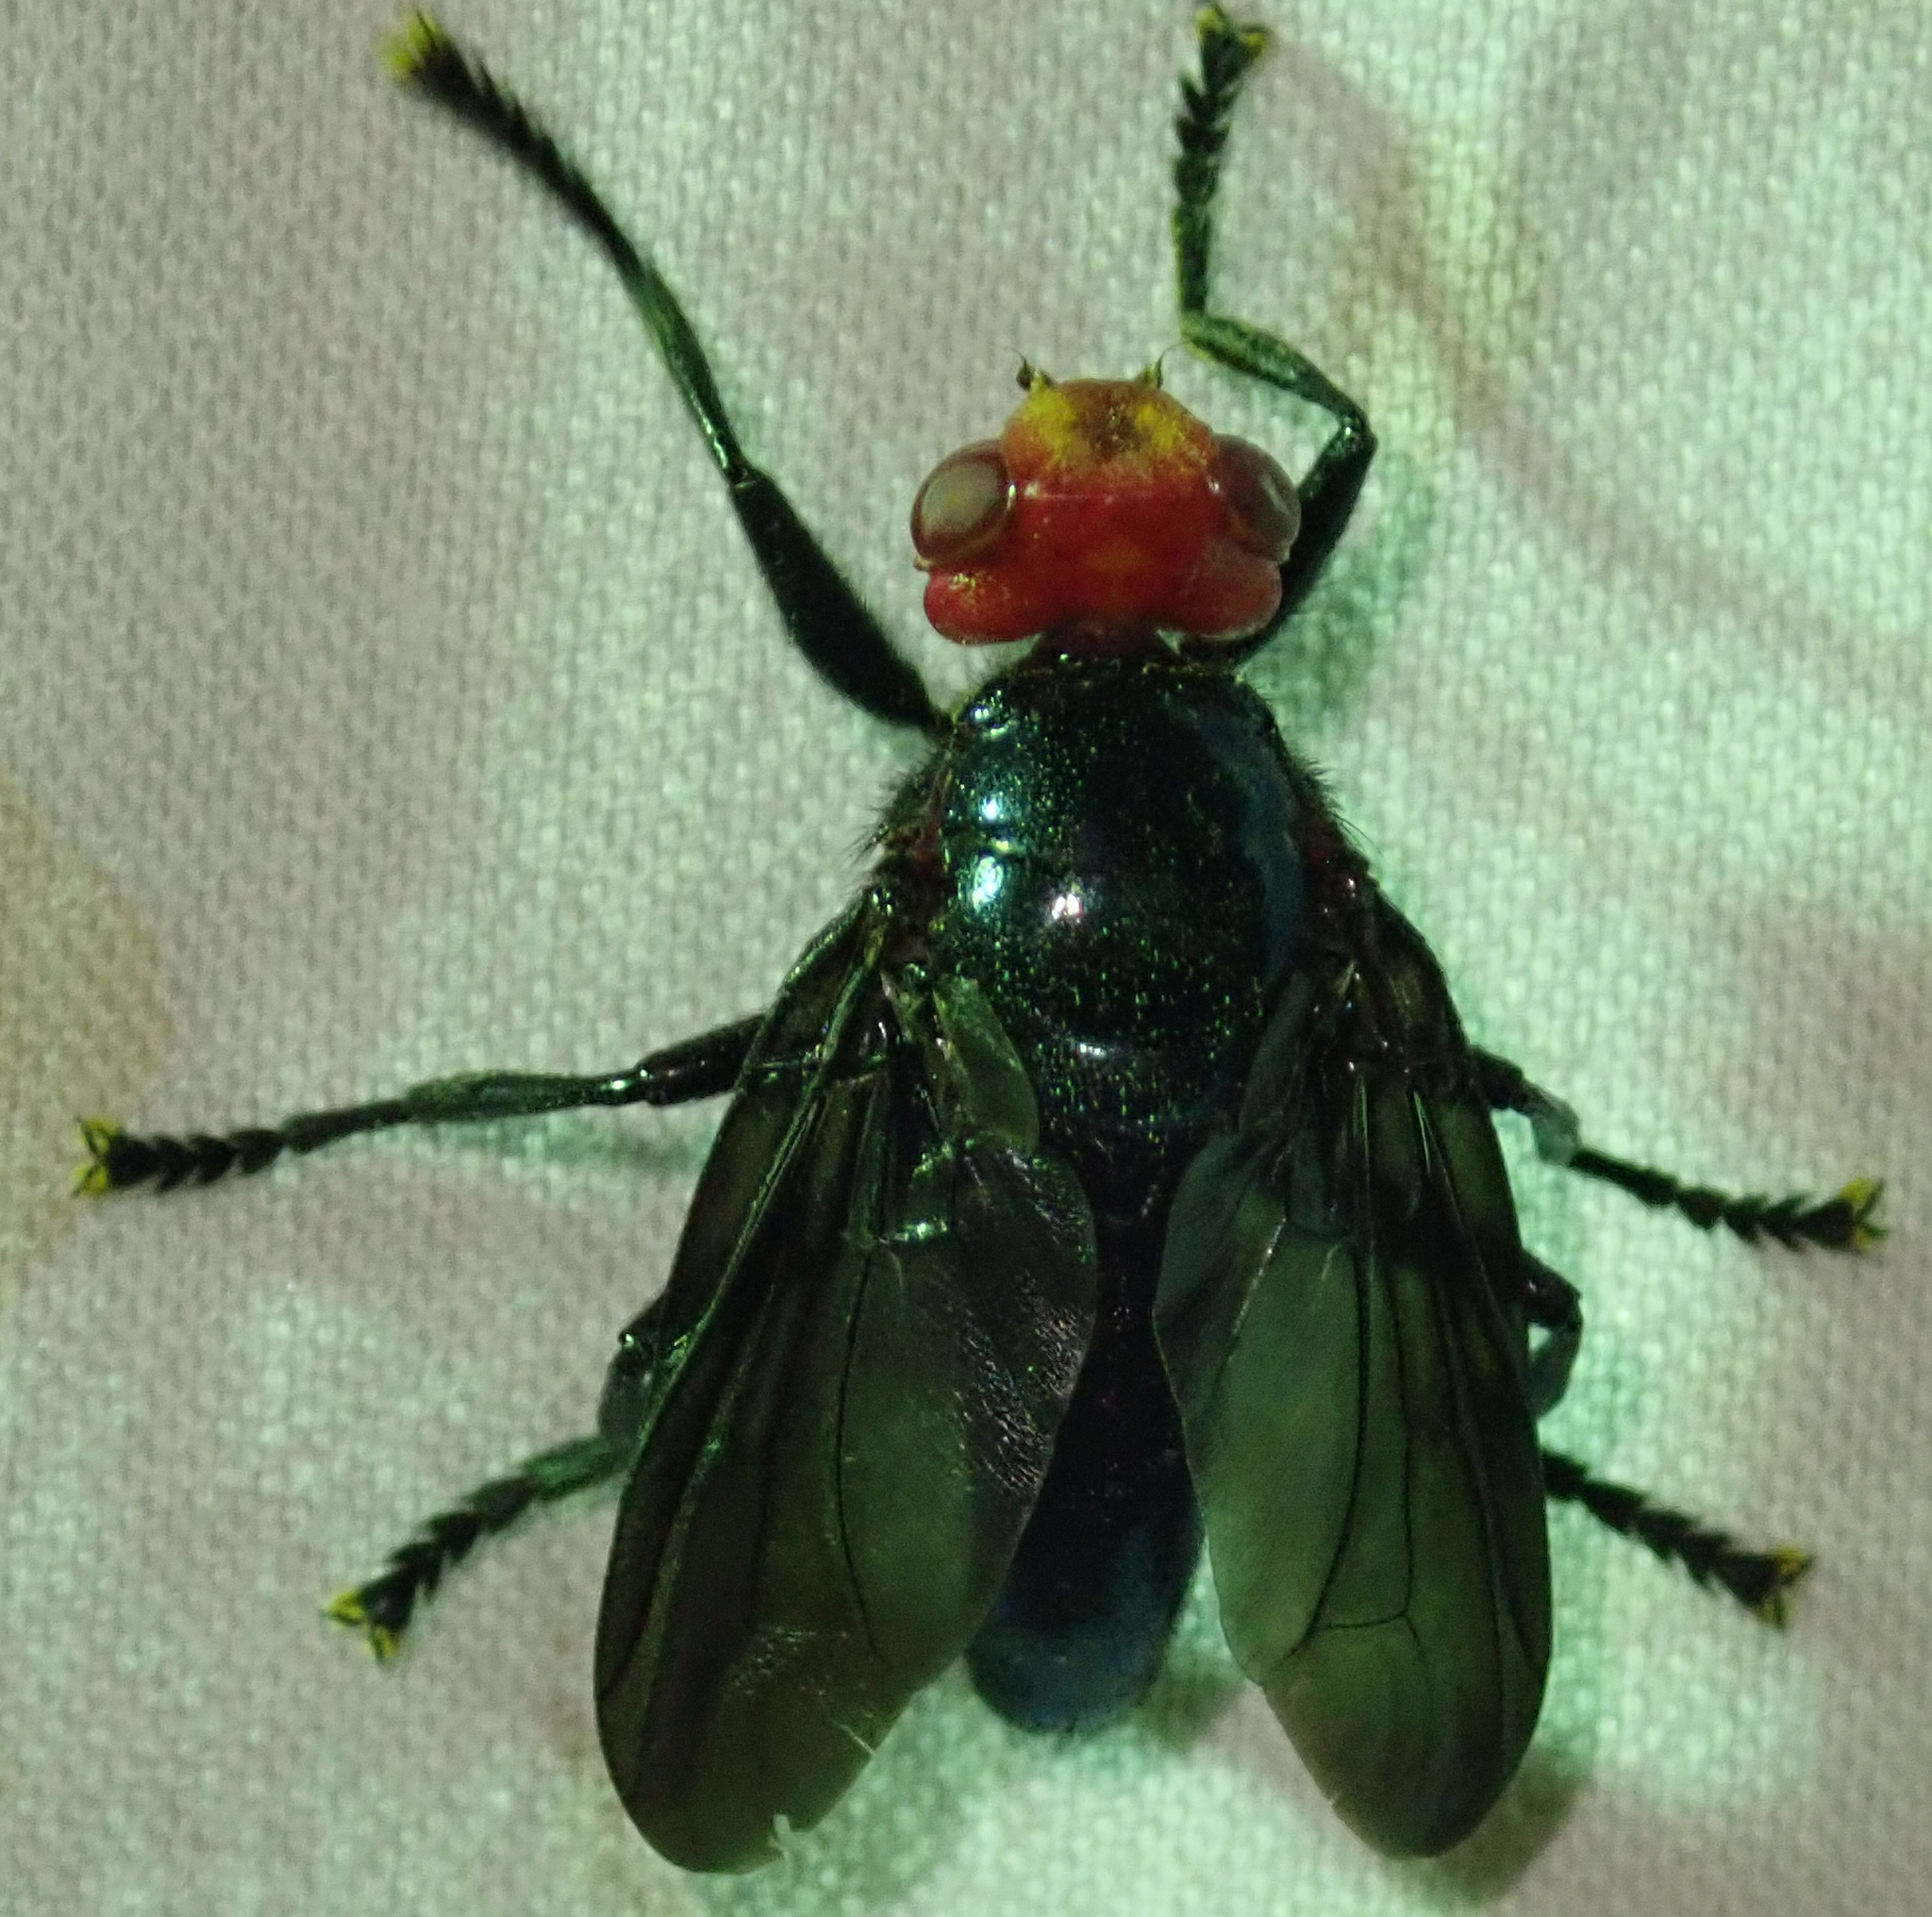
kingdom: Animalia
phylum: Arthropoda
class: Insecta
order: Diptera
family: Platystomatidae
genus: Bromophila
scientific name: Bromophila caffra
